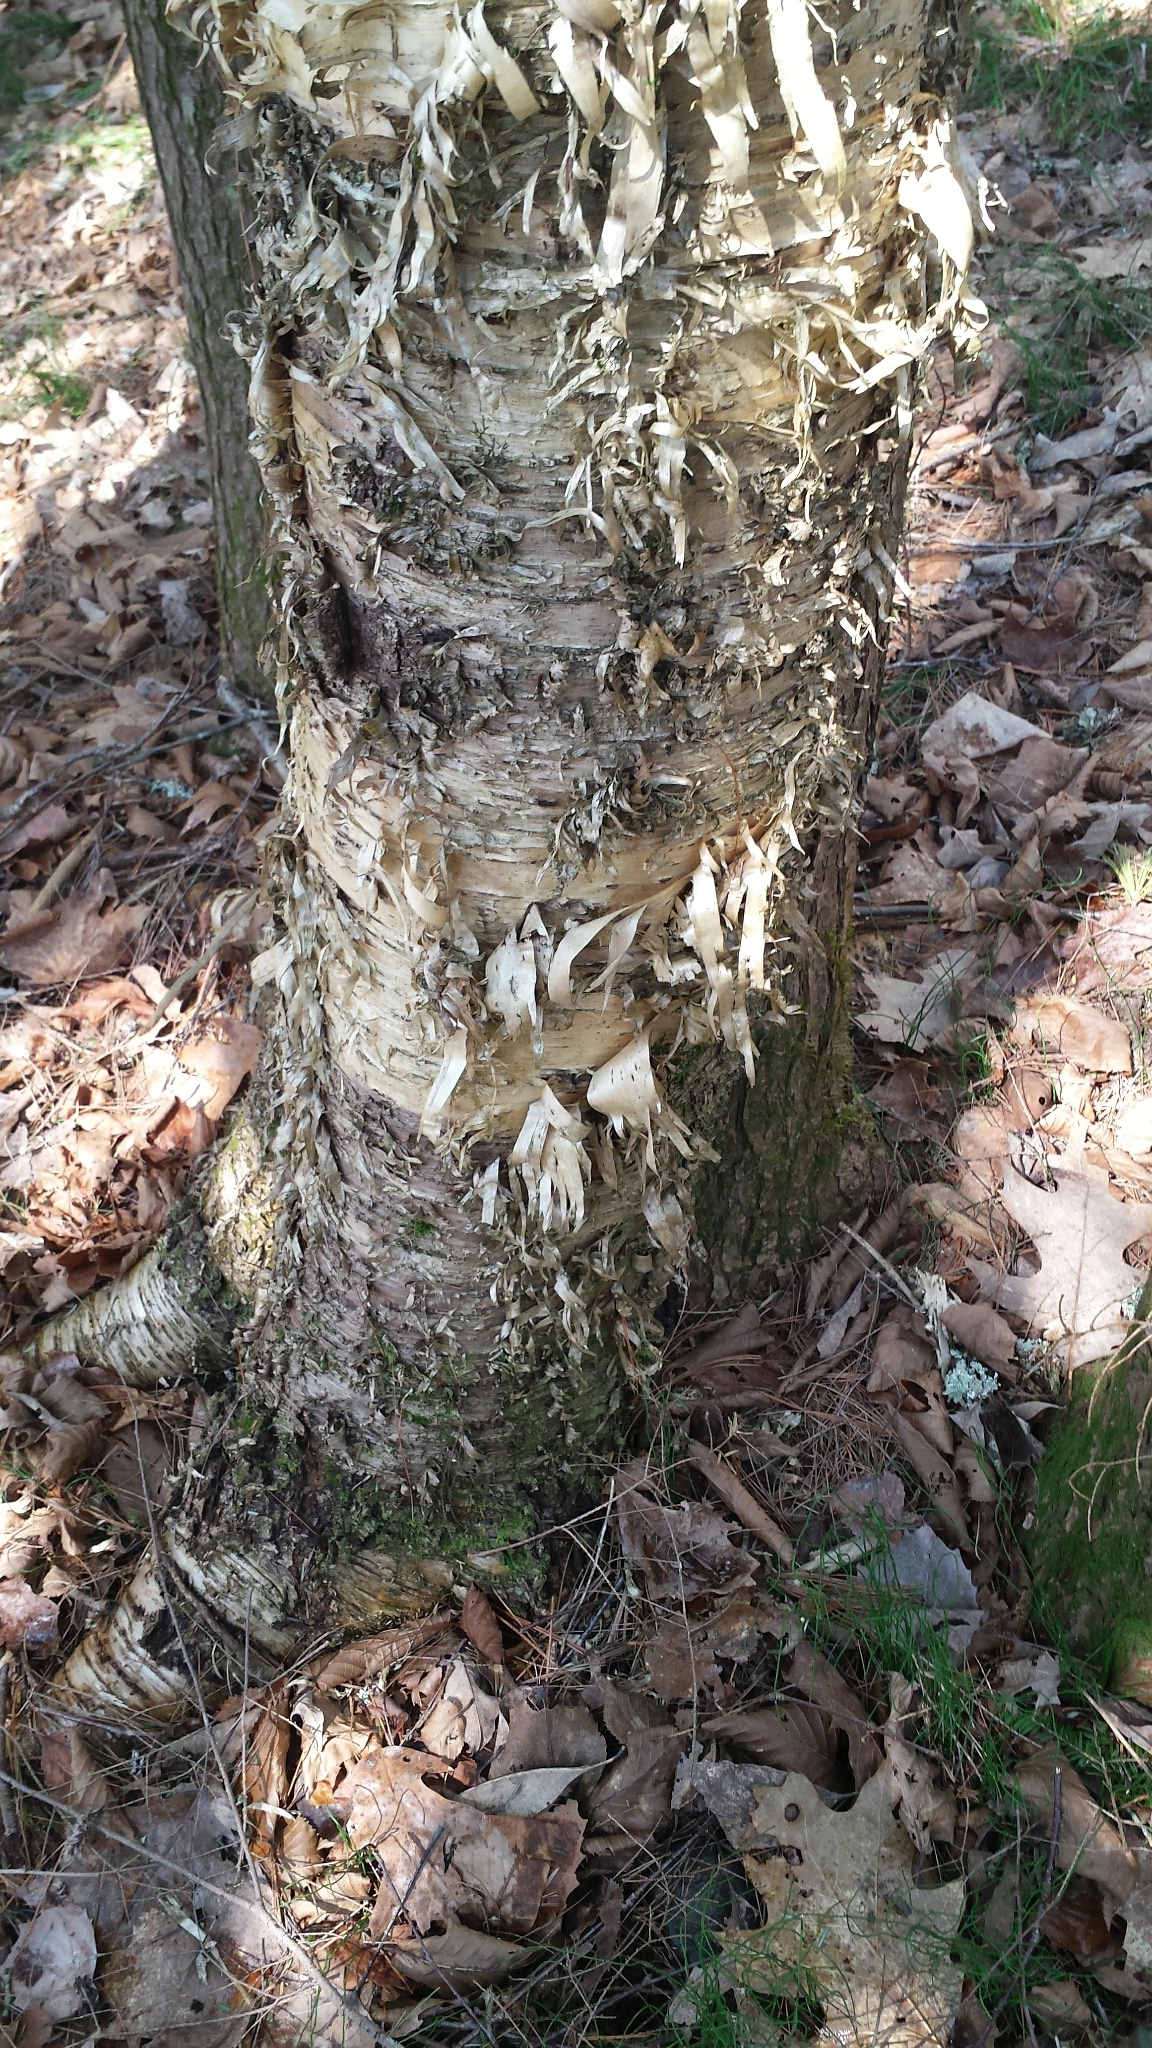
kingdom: Plantae
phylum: Tracheophyta
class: Magnoliopsida
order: Fagales
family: Betulaceae
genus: Betula
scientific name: Betula alleghaniensis
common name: Yellow birch
